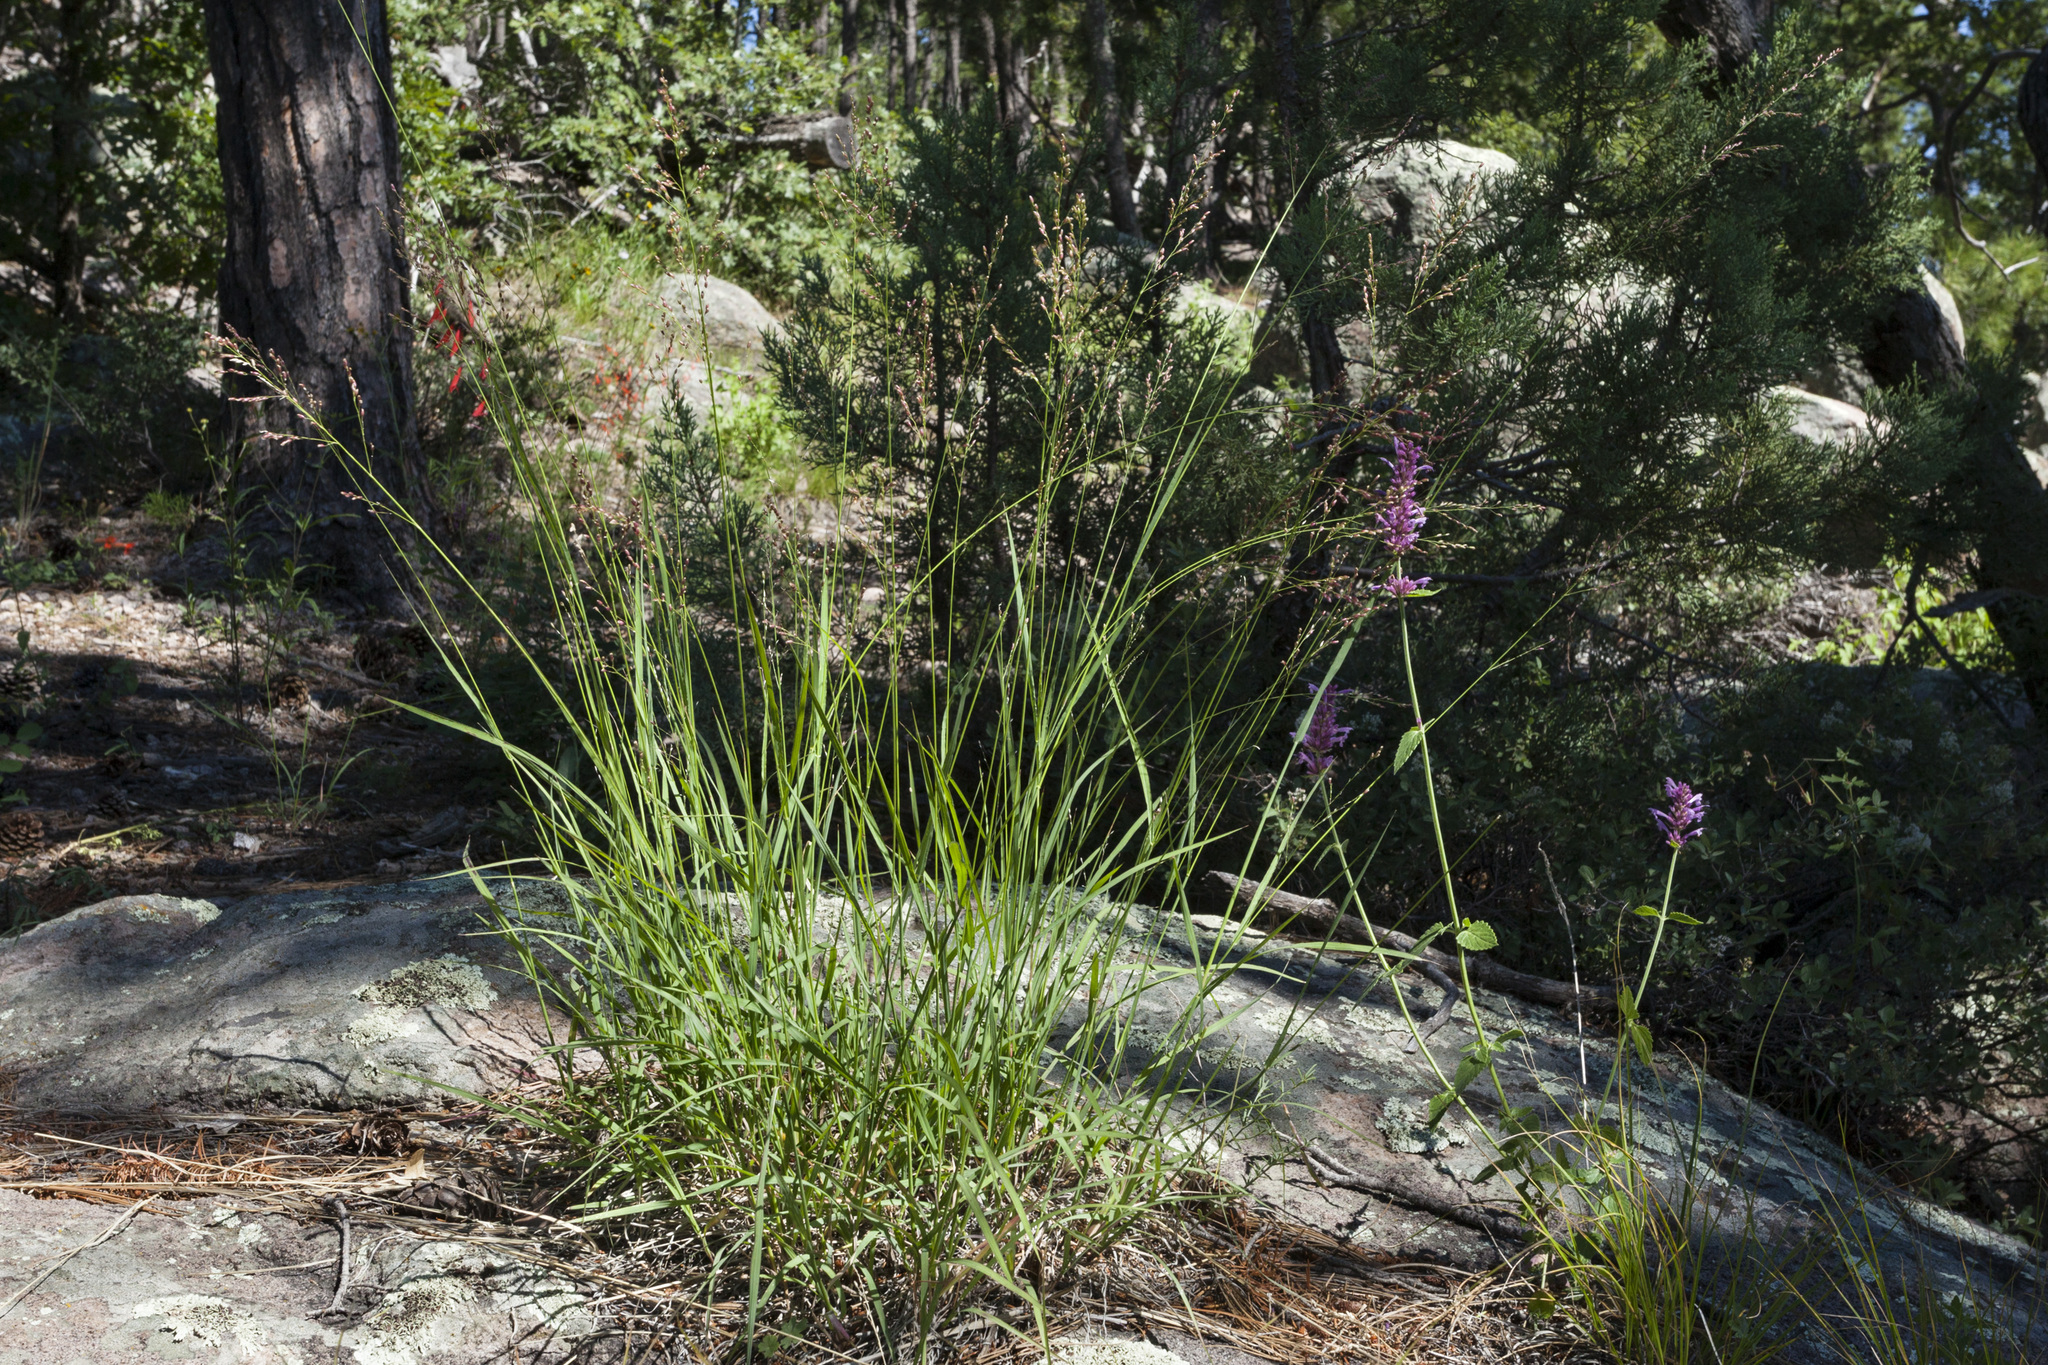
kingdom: Plantae
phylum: Tracheophyta
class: Liliopsida
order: Poales
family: Poaceae
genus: Zuloagaea
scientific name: Zuloagaea bulbosa
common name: Canyon panic grass
